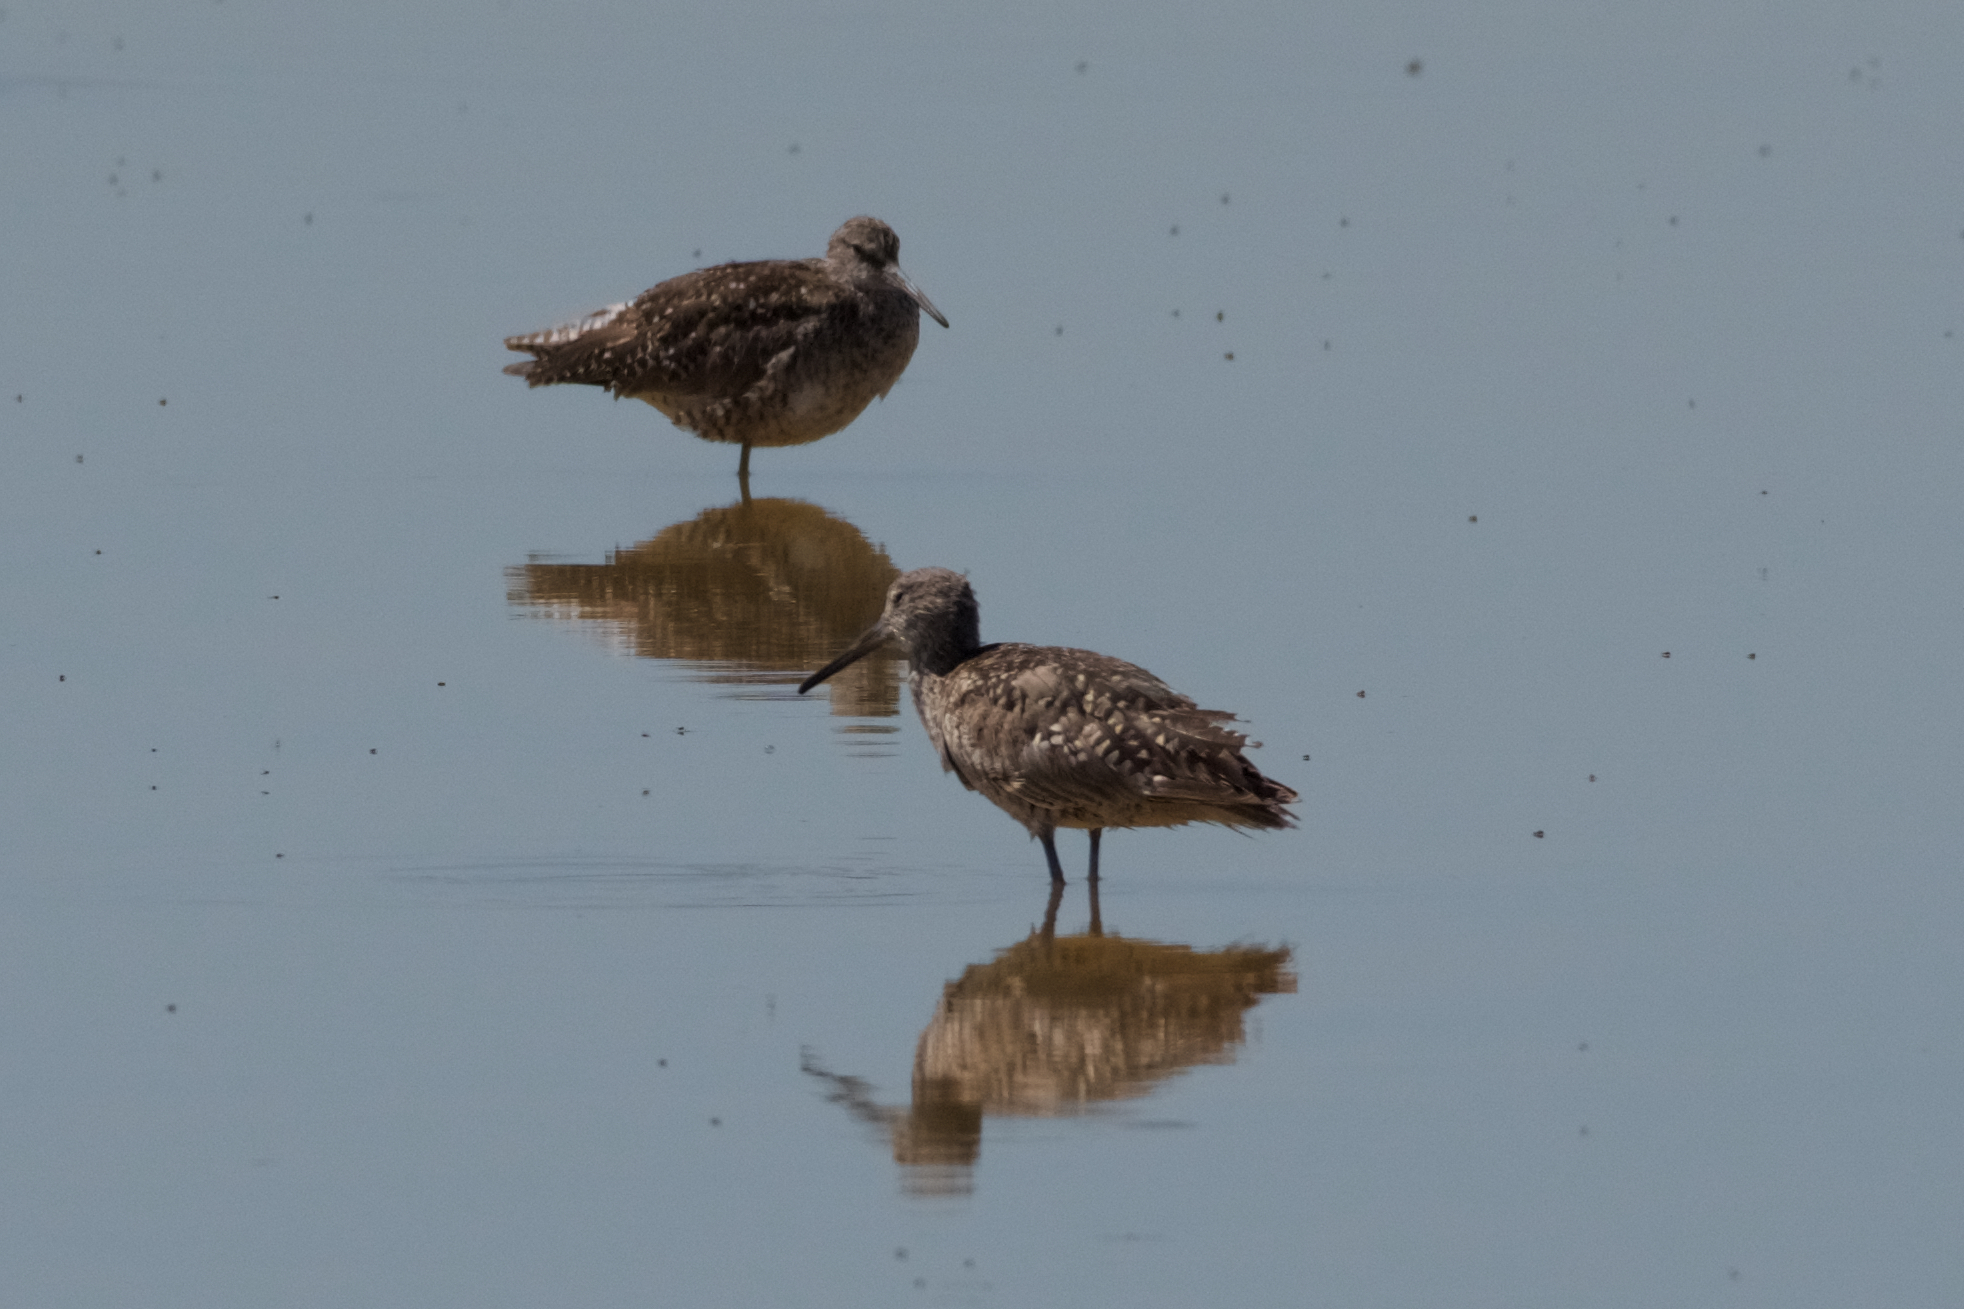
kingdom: Animalia
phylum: Chordata
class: Aves
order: Charadriiformes
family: Scolopacidae
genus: Tringa
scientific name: Tringa semipalmata
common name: Willet
